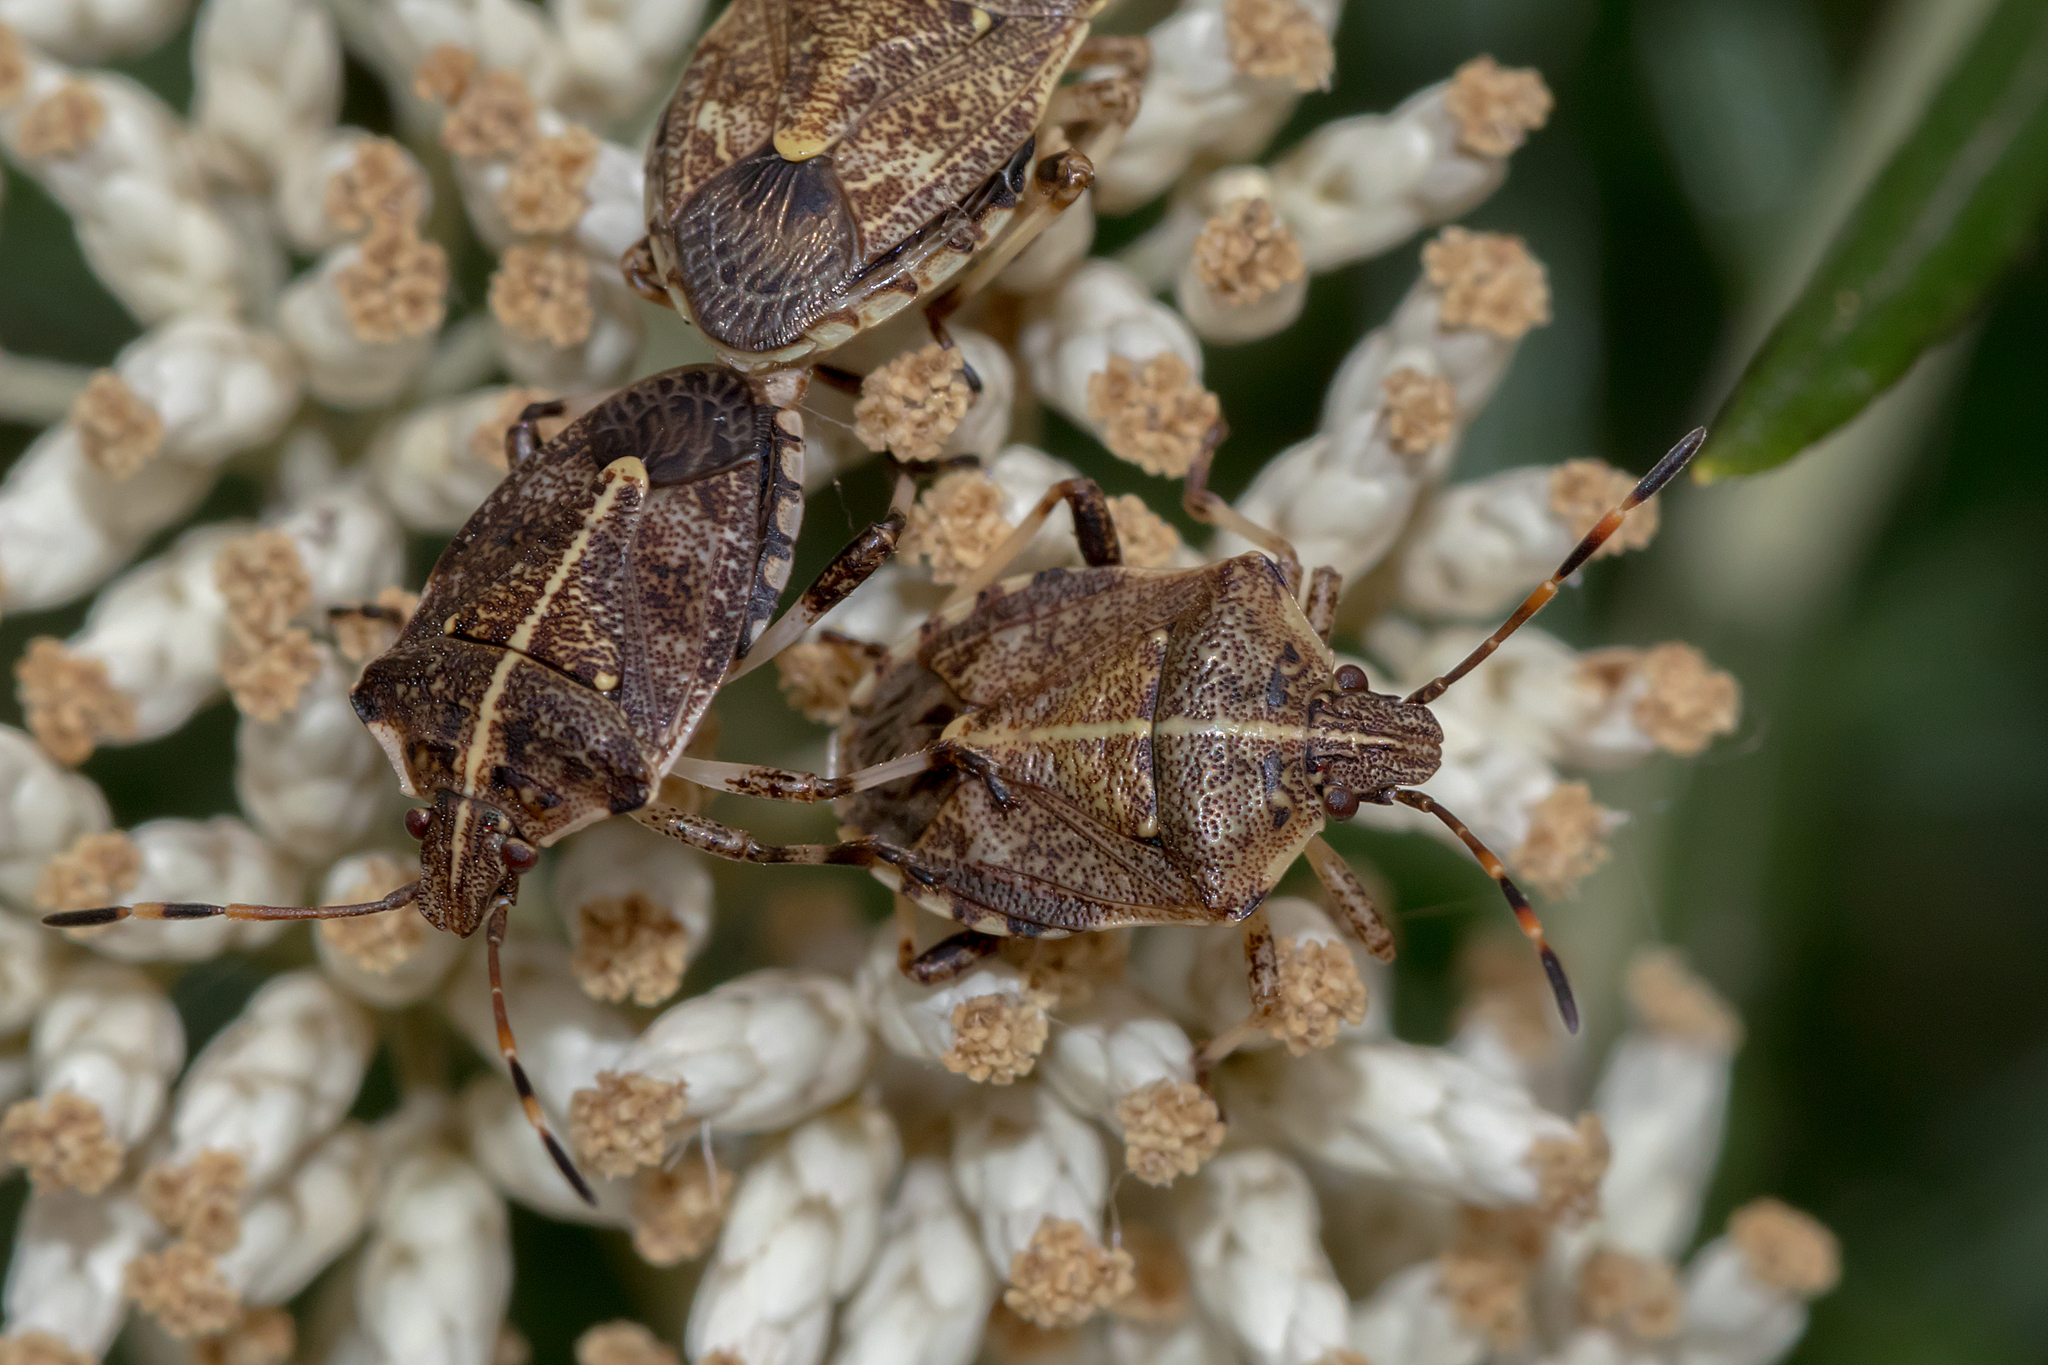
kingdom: Animalia
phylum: Arthropoda
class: Insecta
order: Hemiptera
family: Pentatomidae
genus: Oncocoris
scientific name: Oncocoris
